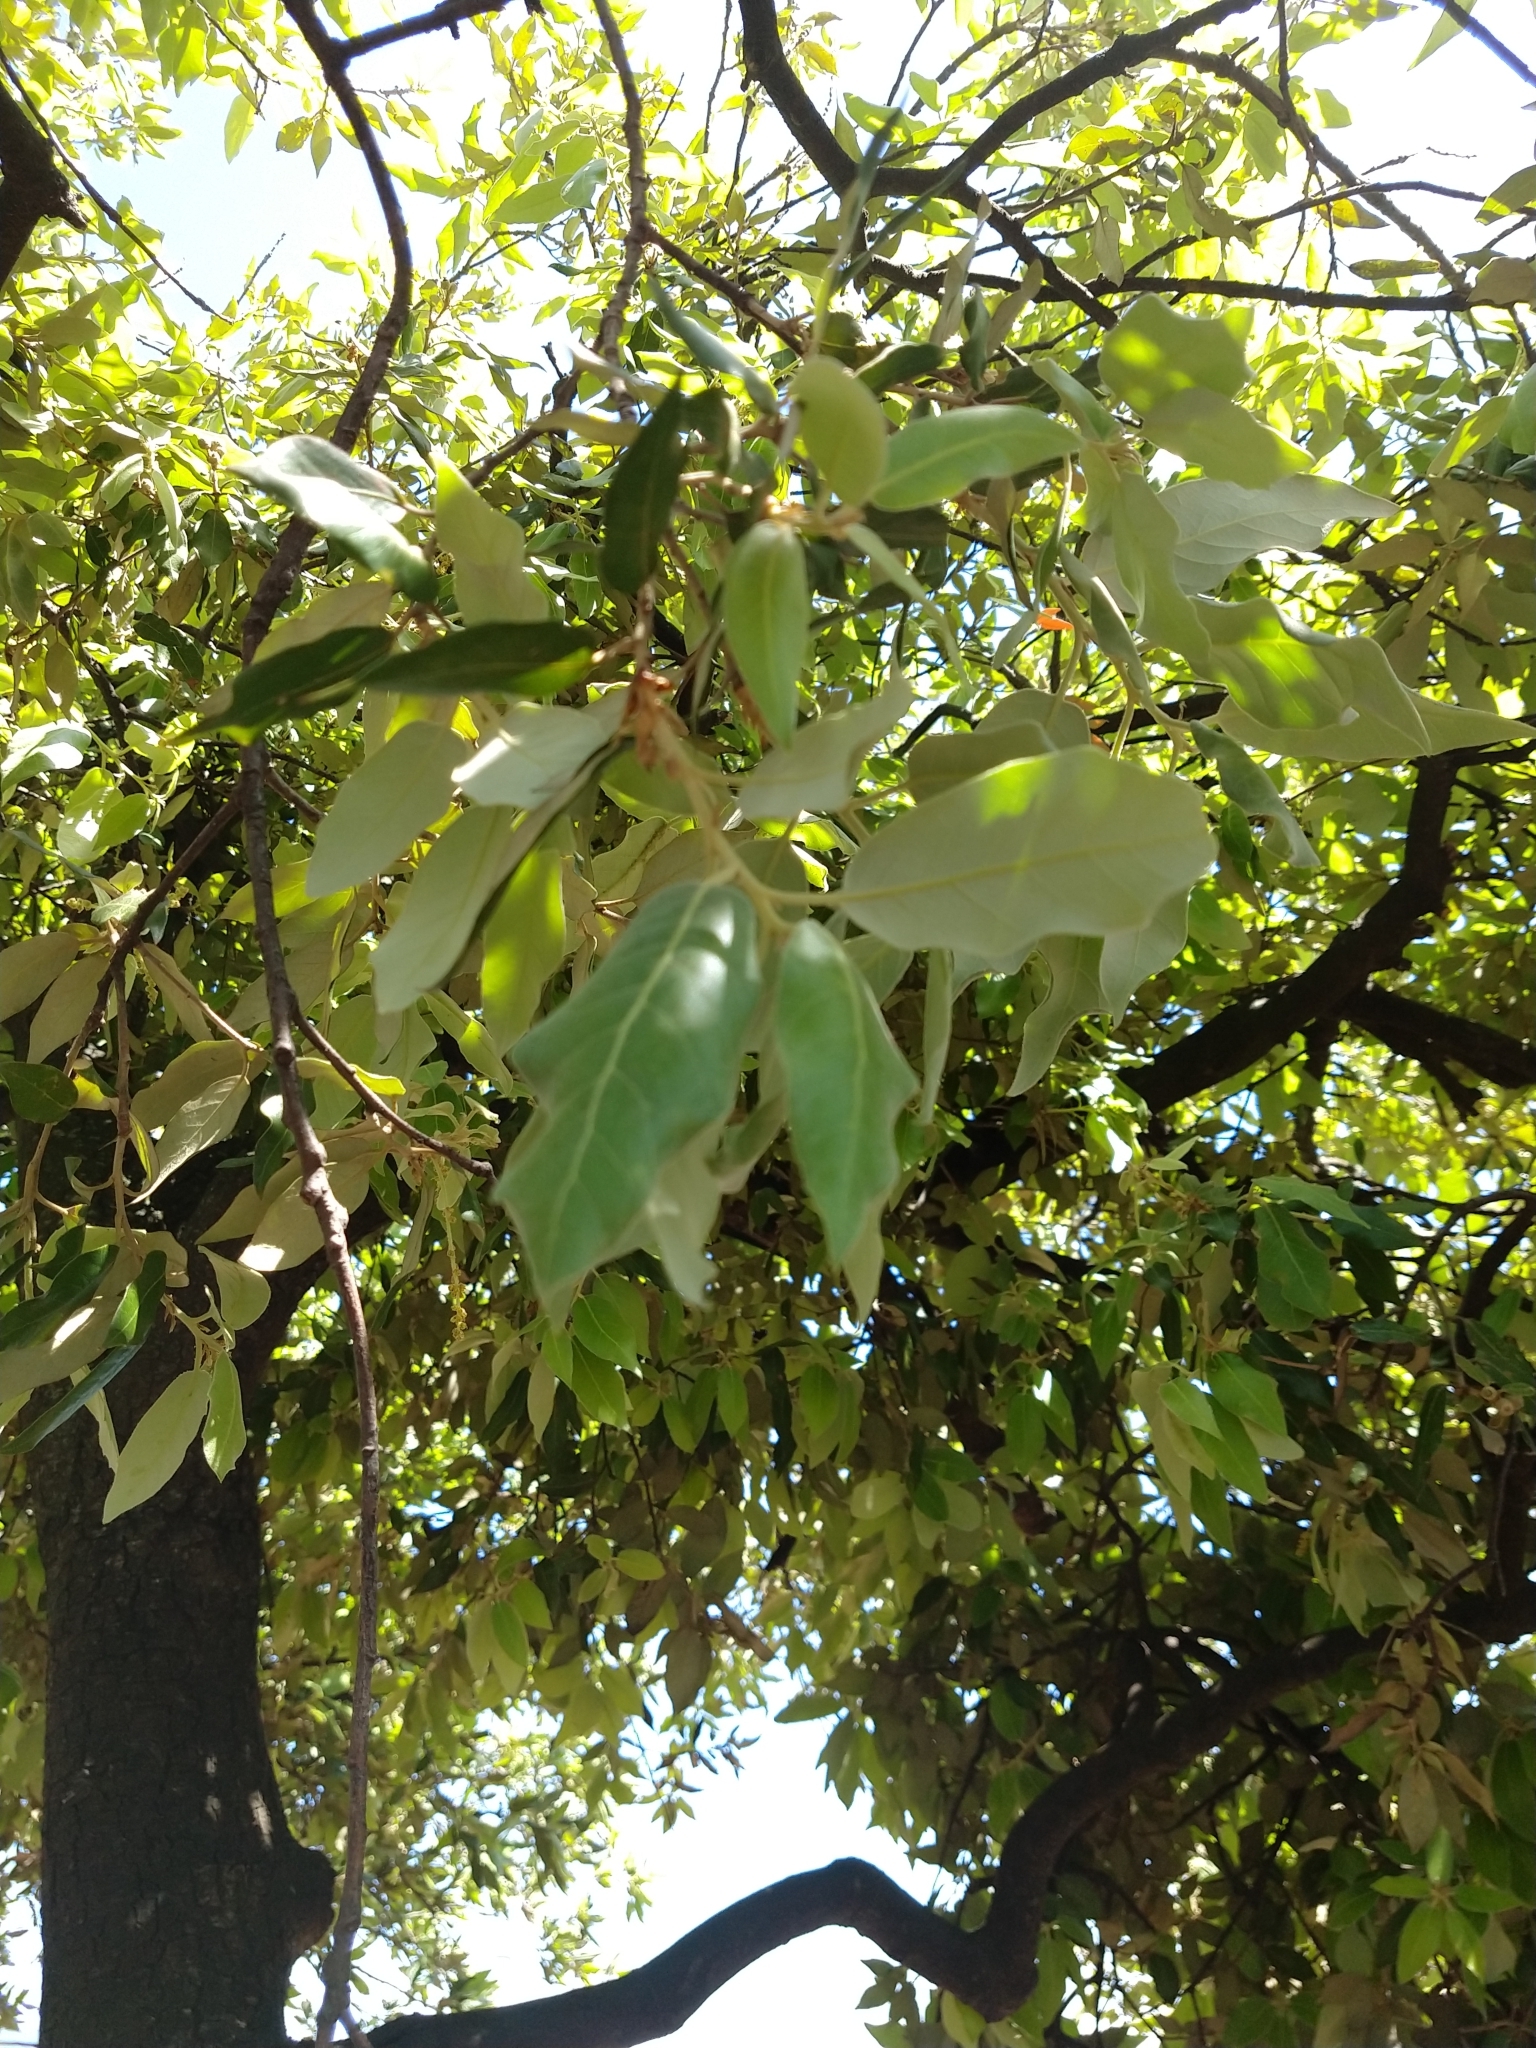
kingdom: Plantae
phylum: Tracheophyta
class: Magnoliopsida
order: Fagales
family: Fagaceae
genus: Quercus
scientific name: Quercus ilex
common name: Evergreen oak
